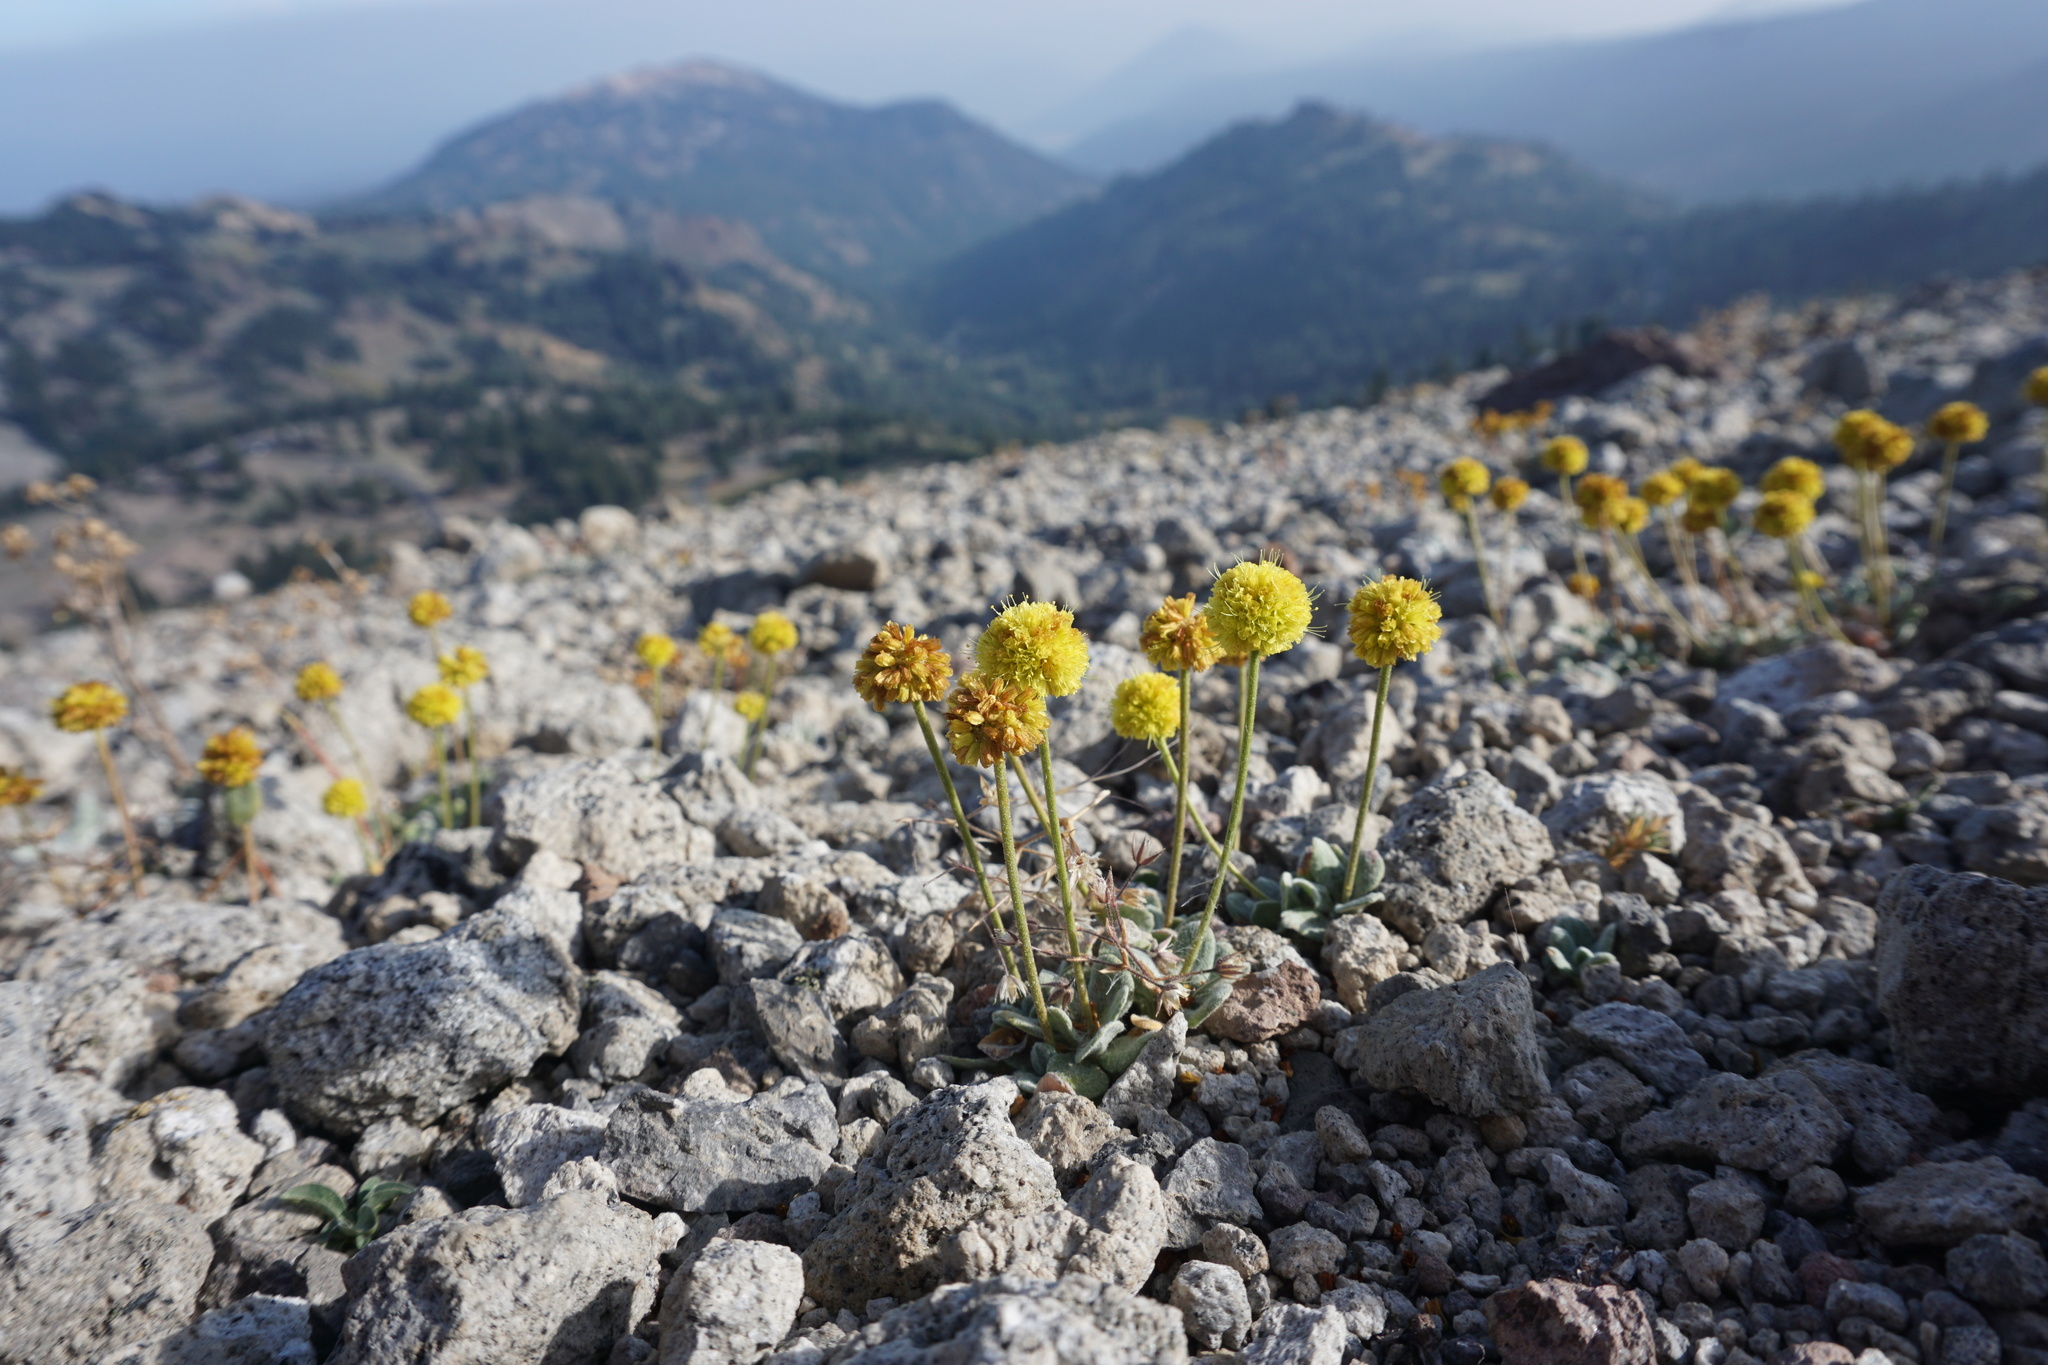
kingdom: Plantae
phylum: Tracheophyta
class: Magnoliopsida
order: Caryophyllales
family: Polygonaceae
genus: Eriogonum
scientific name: Eriogonum rosense
